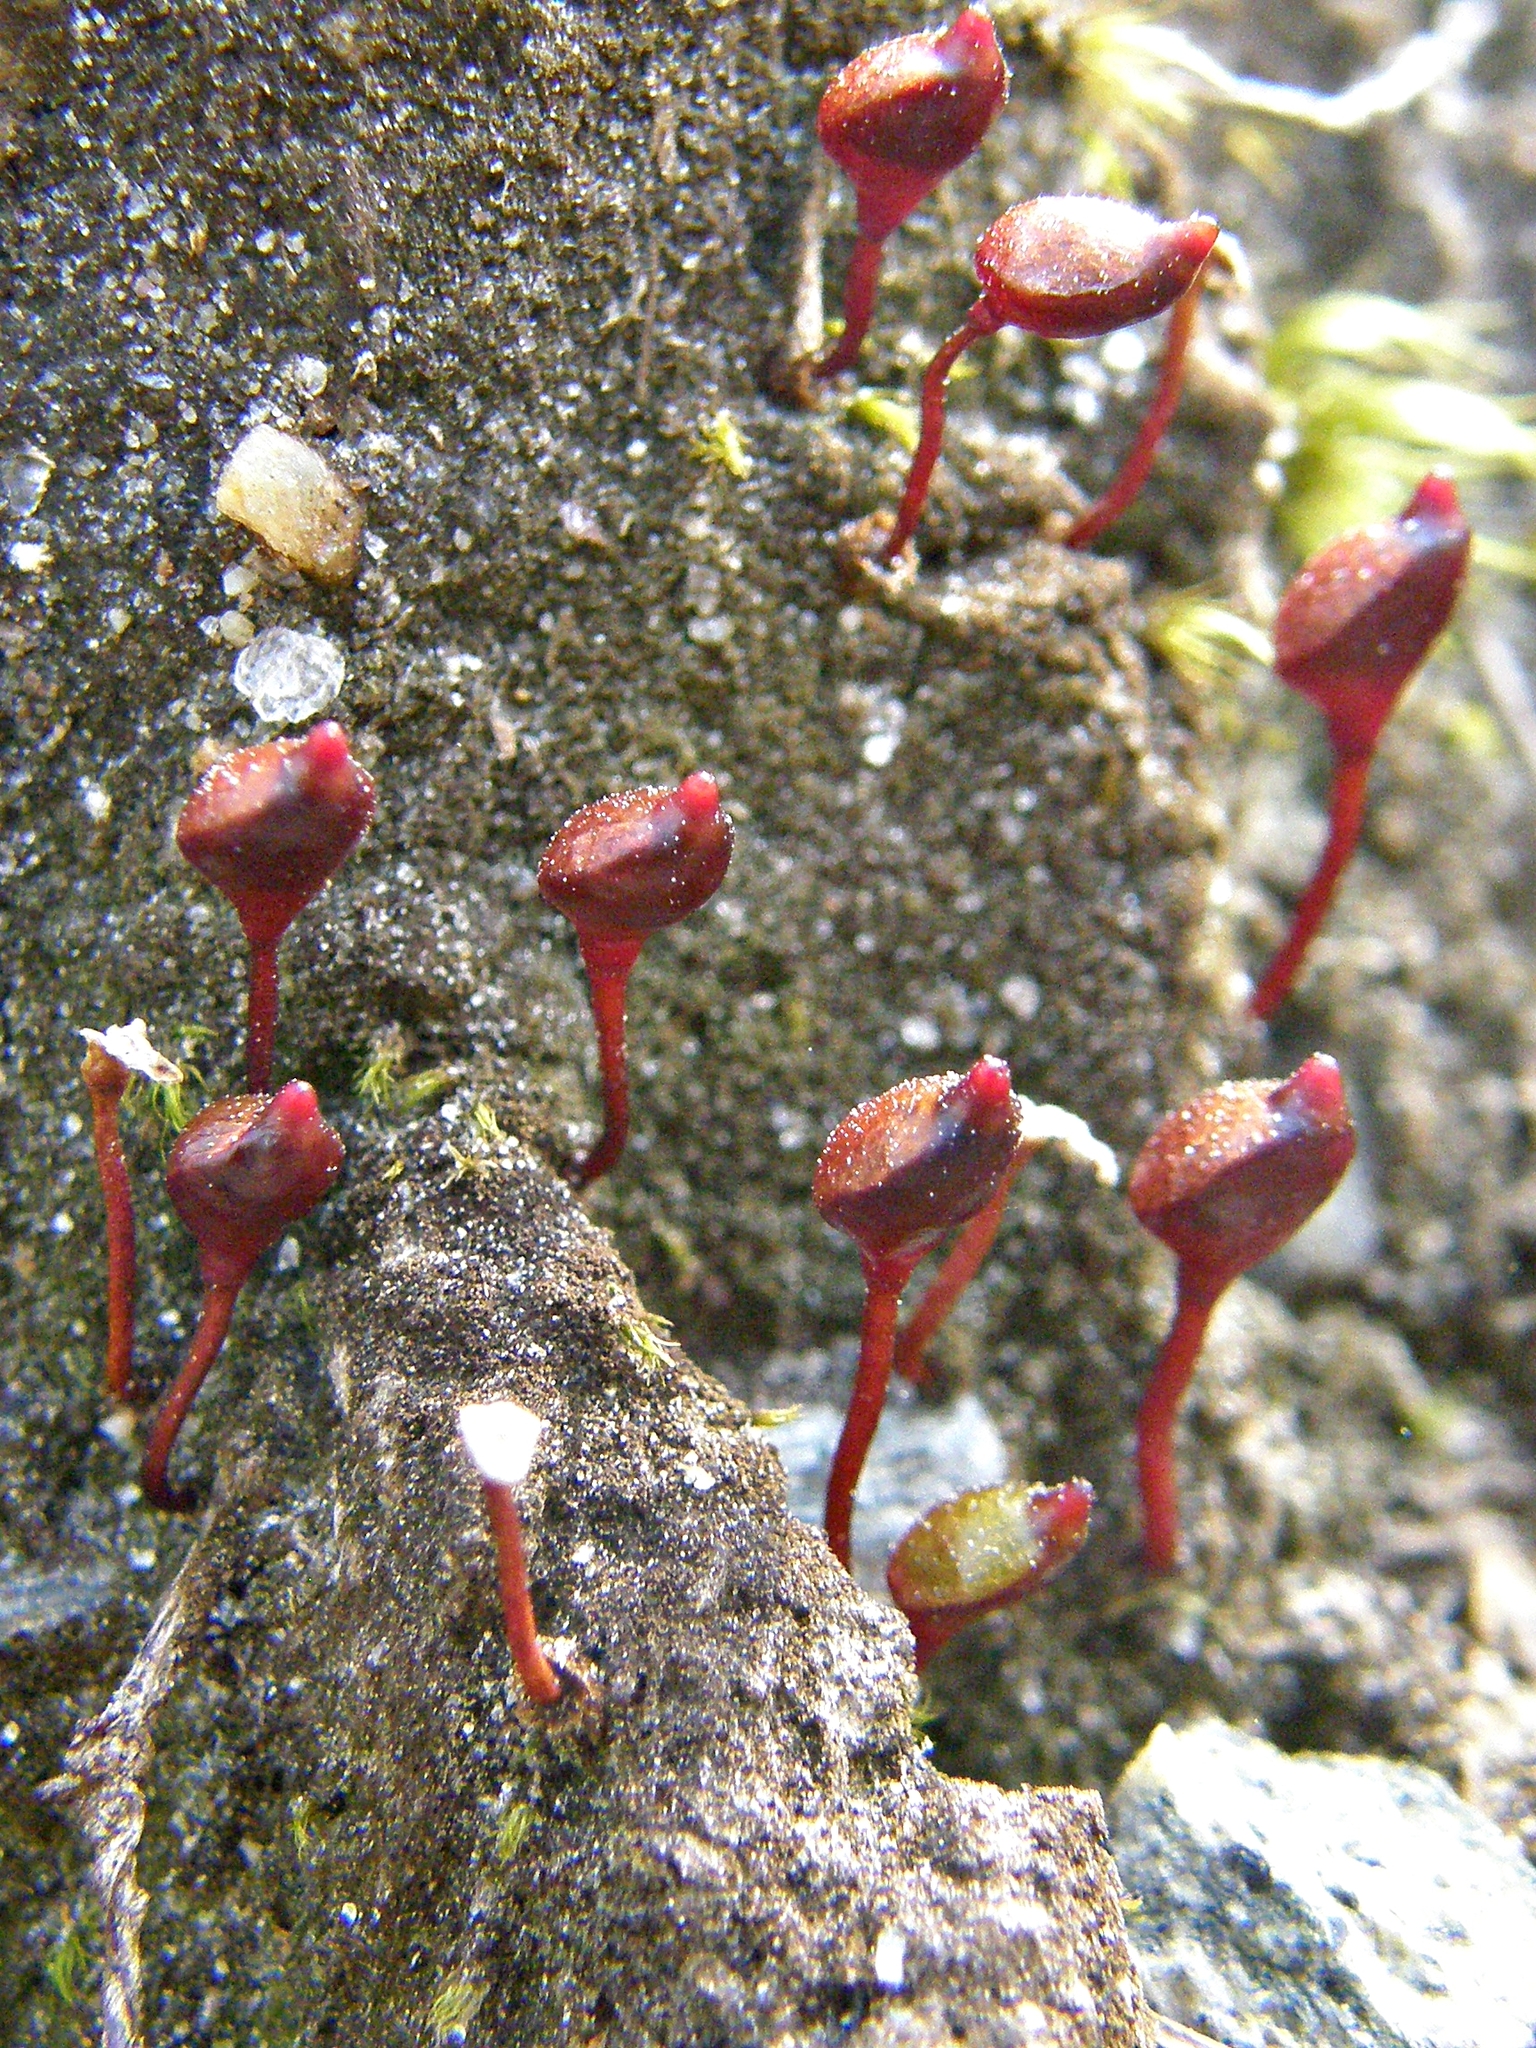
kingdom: Plantae
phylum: Bryophyta
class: Bryopsida
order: Buxbaumiales
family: Buxbaumiaceae
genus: Buxbaumia
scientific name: Buxbaumia aphylla
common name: Brown shield-moss
